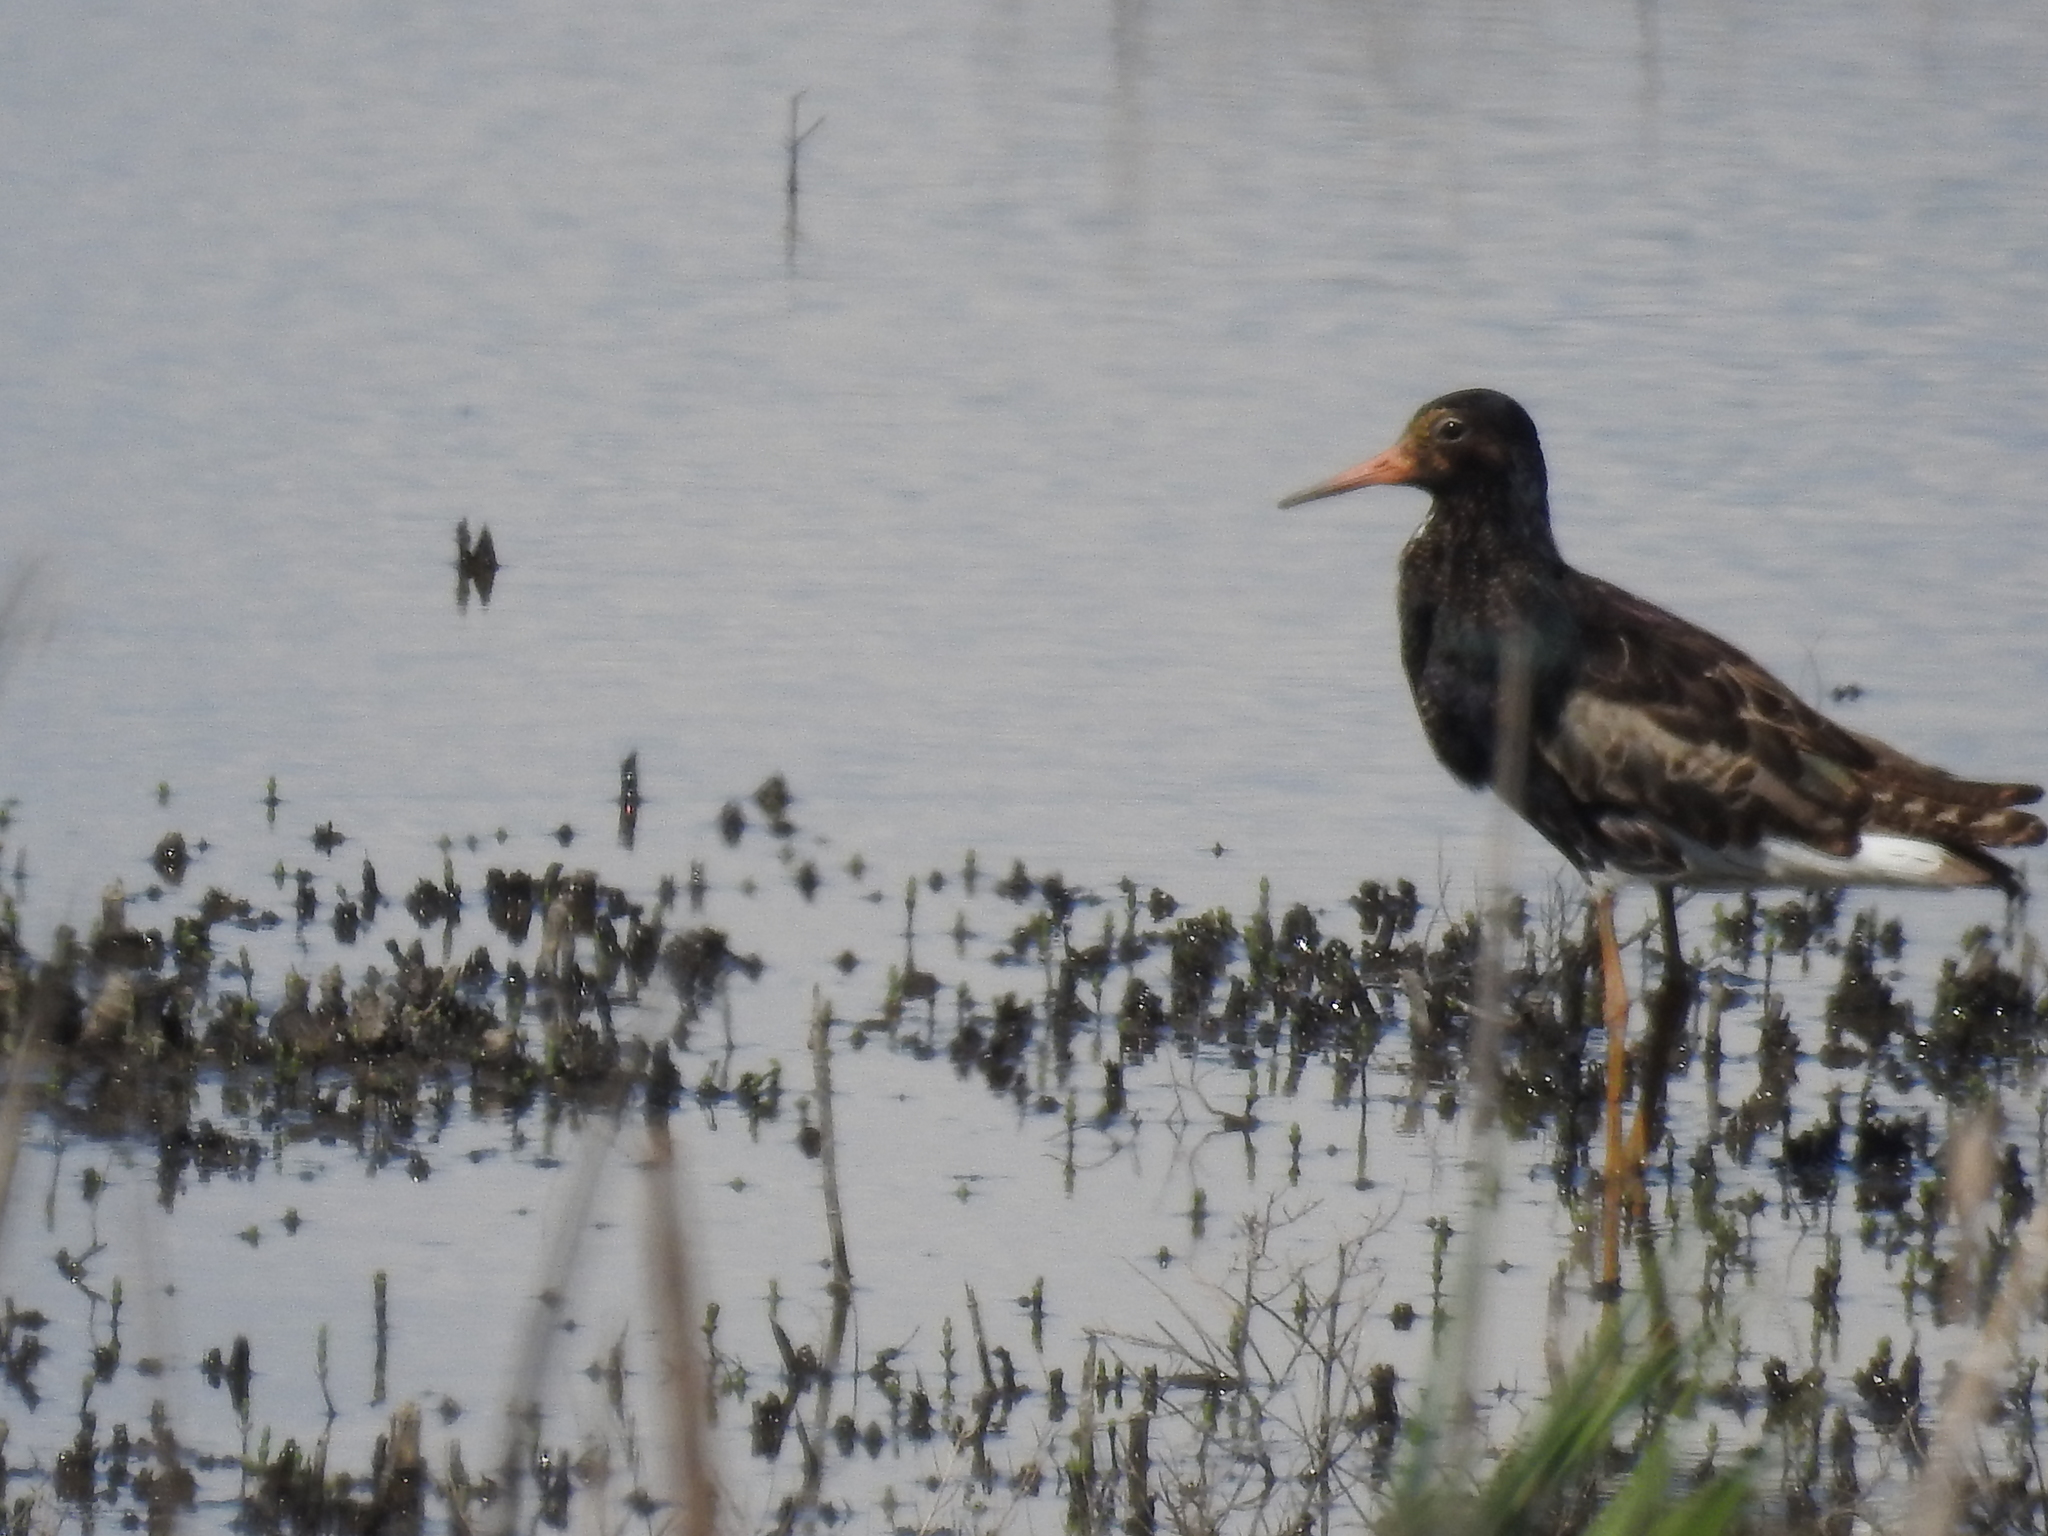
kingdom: Animalia
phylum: Chordata
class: Aves
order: Charadriiformes
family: Scolopacidae
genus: Calidris
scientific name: Calidris pugnax
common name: Ruff
